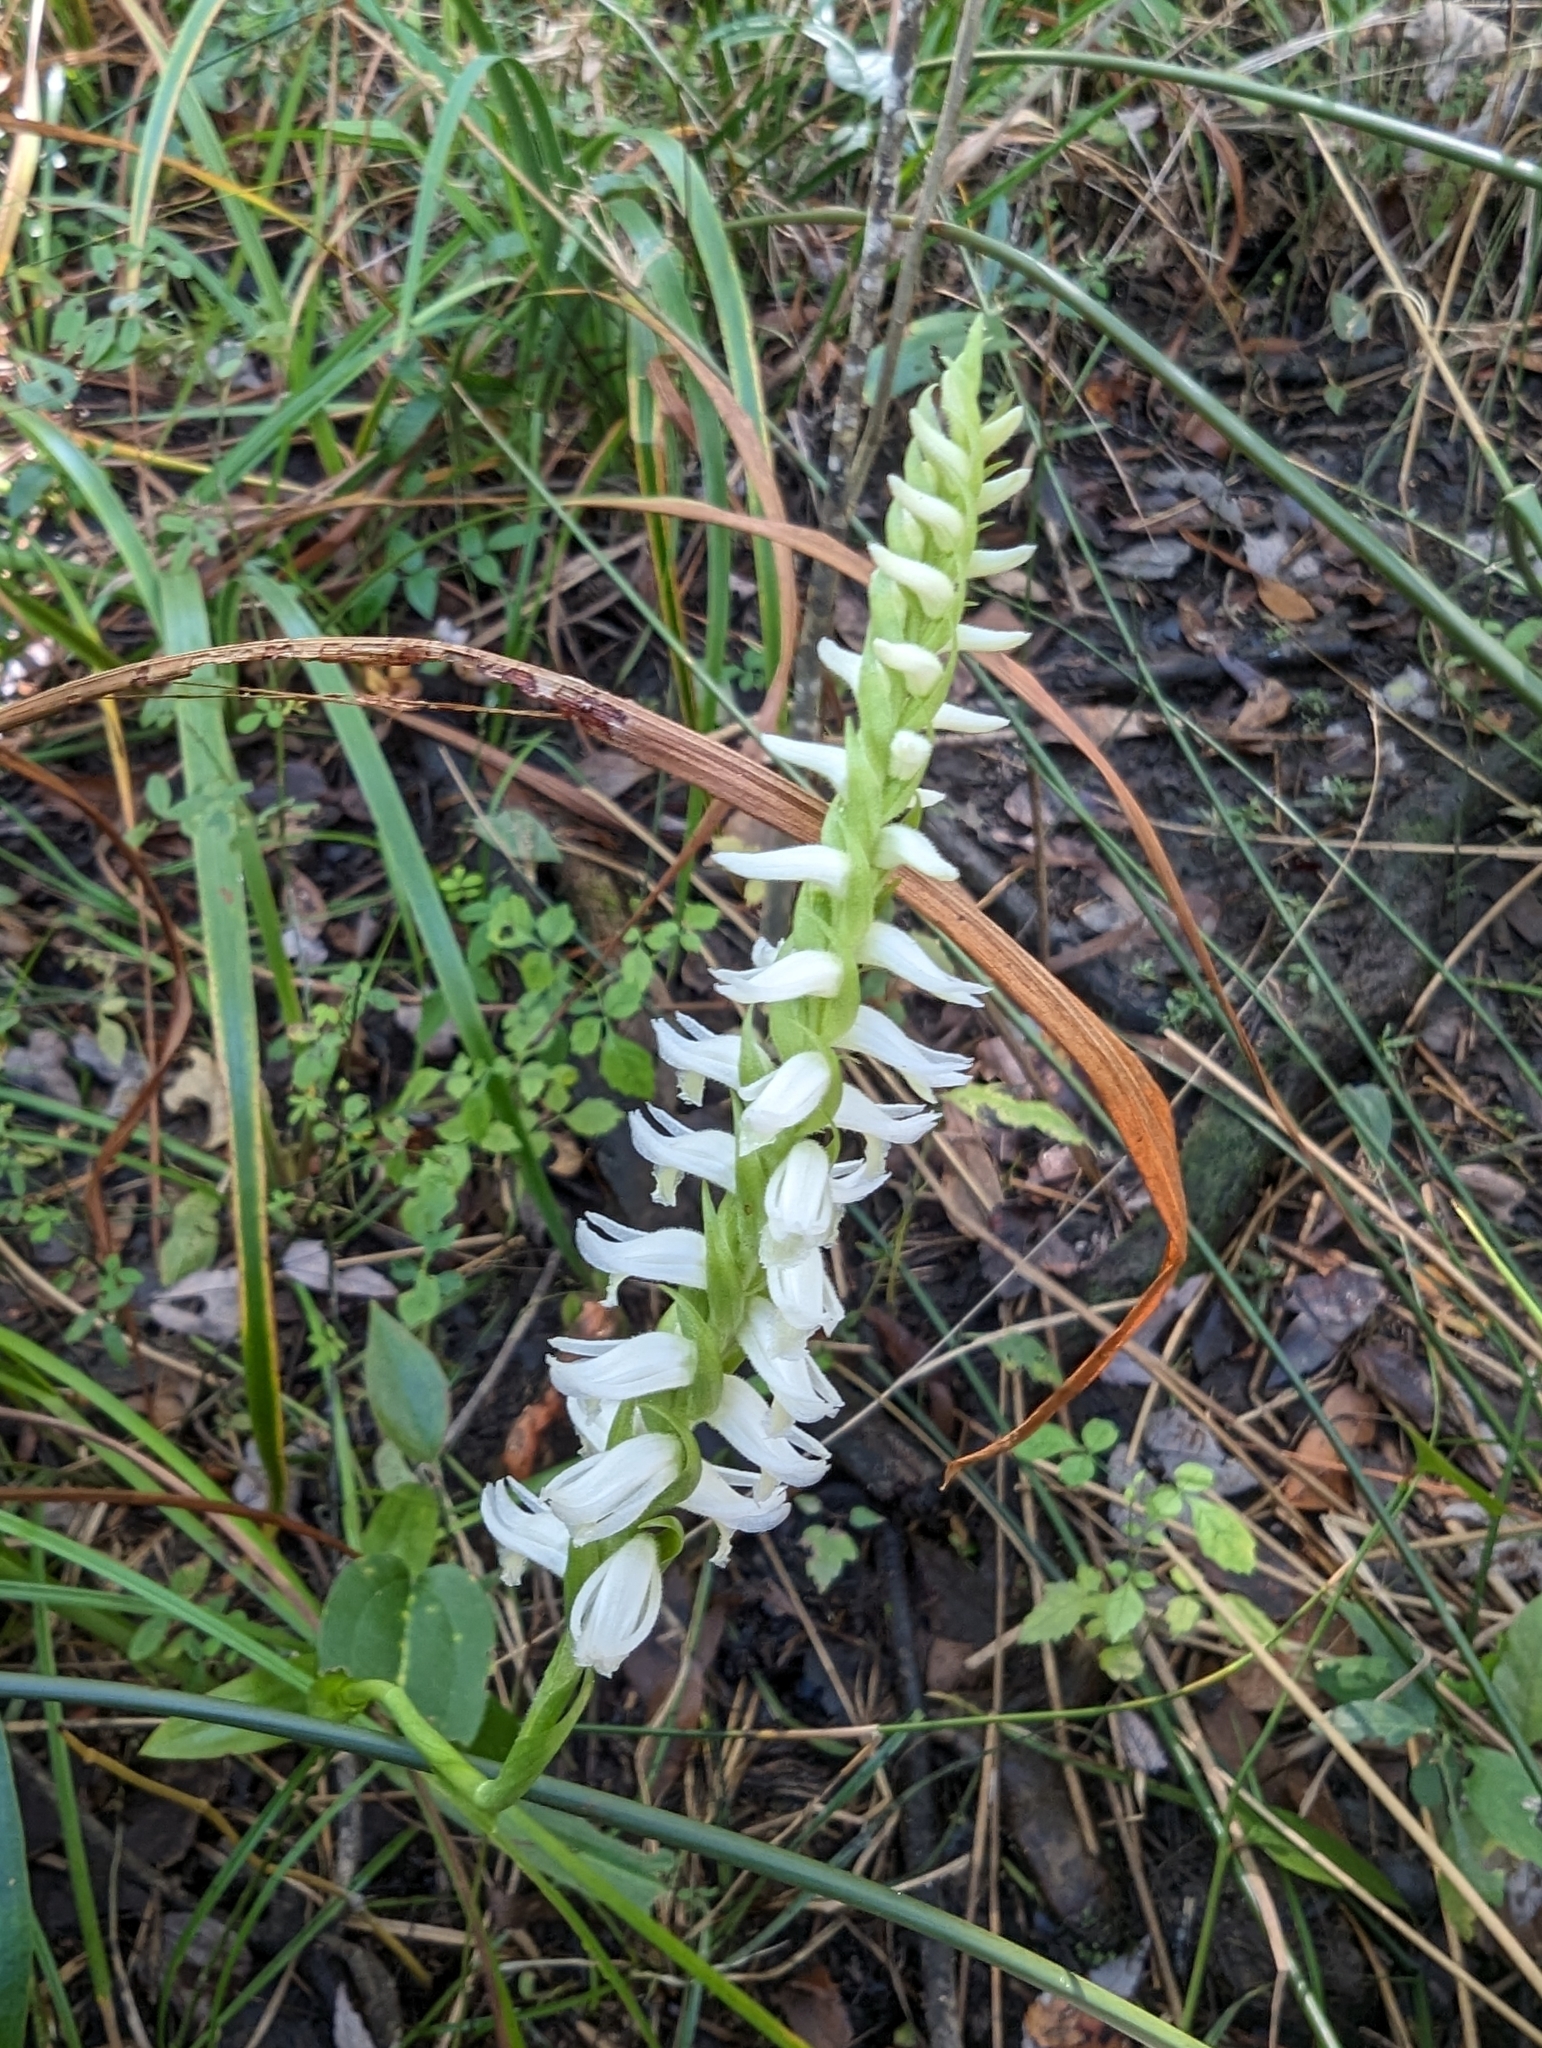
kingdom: Plantae
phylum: Tracheophyta
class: Liliopsida
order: Asparagales
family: Orchidaceae
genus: Spiranthes
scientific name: Spiranthes odorata
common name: Marsh ladies'-tresses
